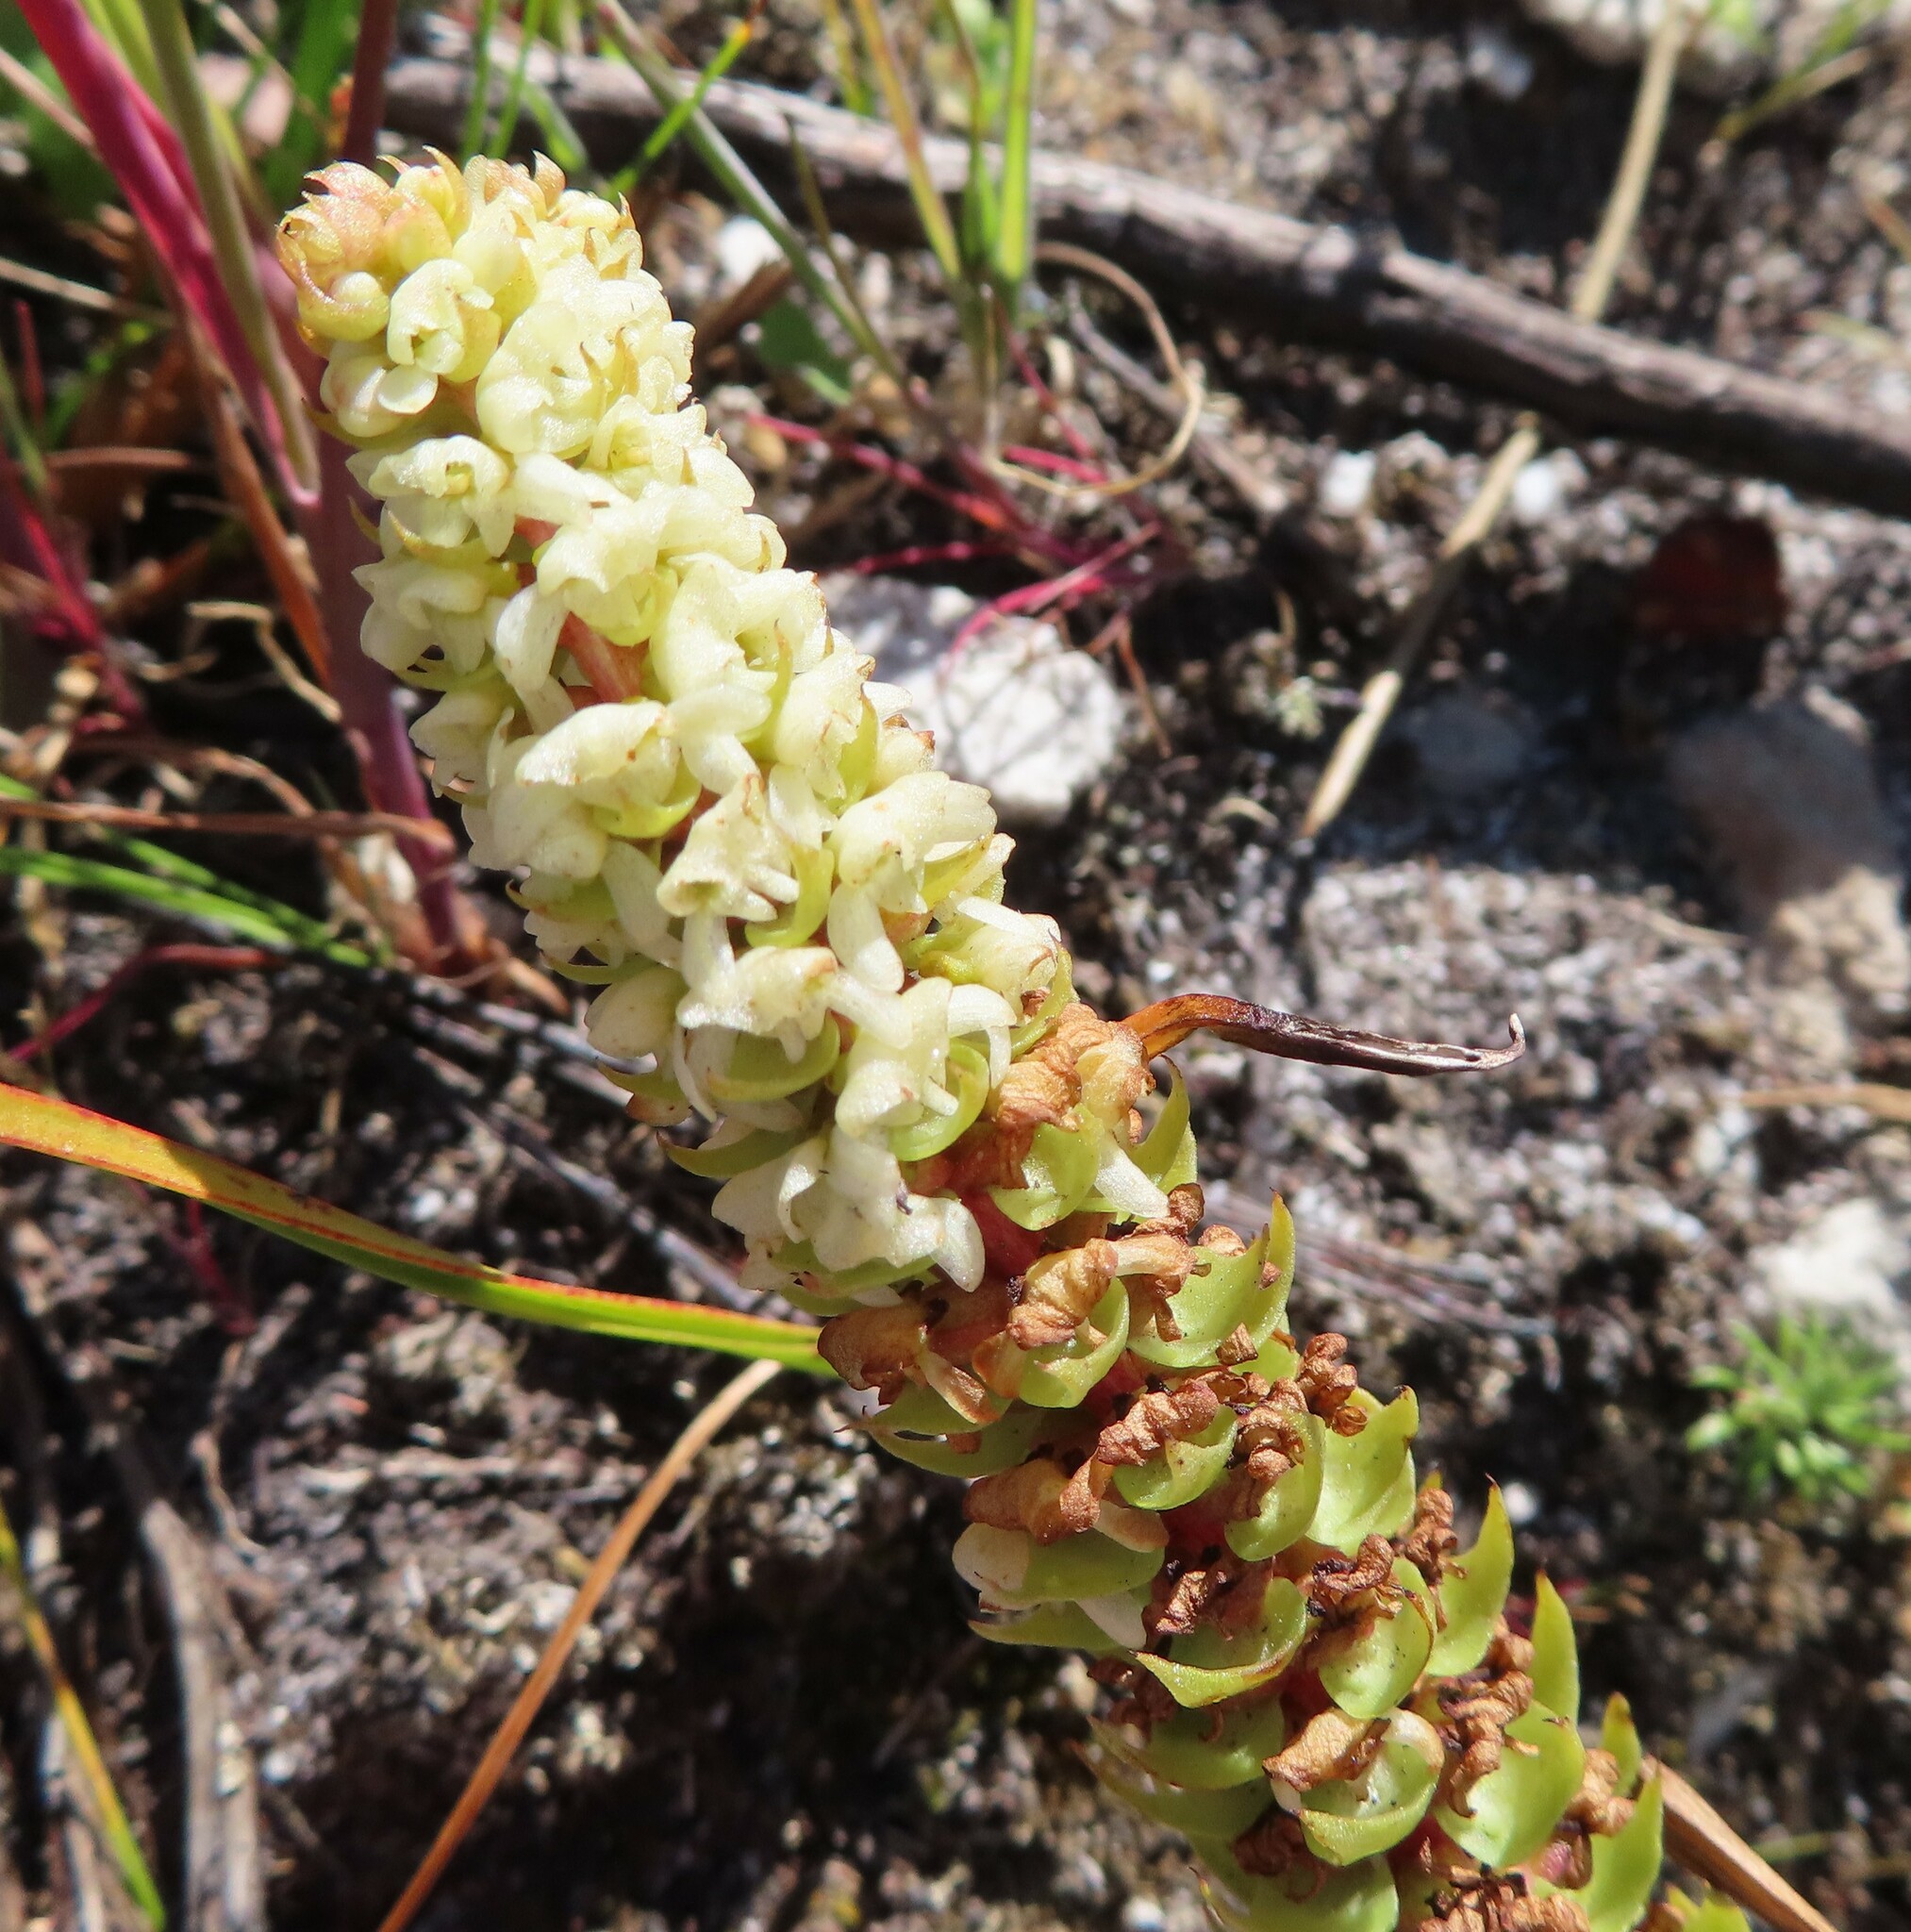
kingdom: Plantae
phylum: Tracheophyta
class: Liliopsida
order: Asparagales
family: Orchidaceae
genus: Satyrium
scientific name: Satyrium bicallosum
